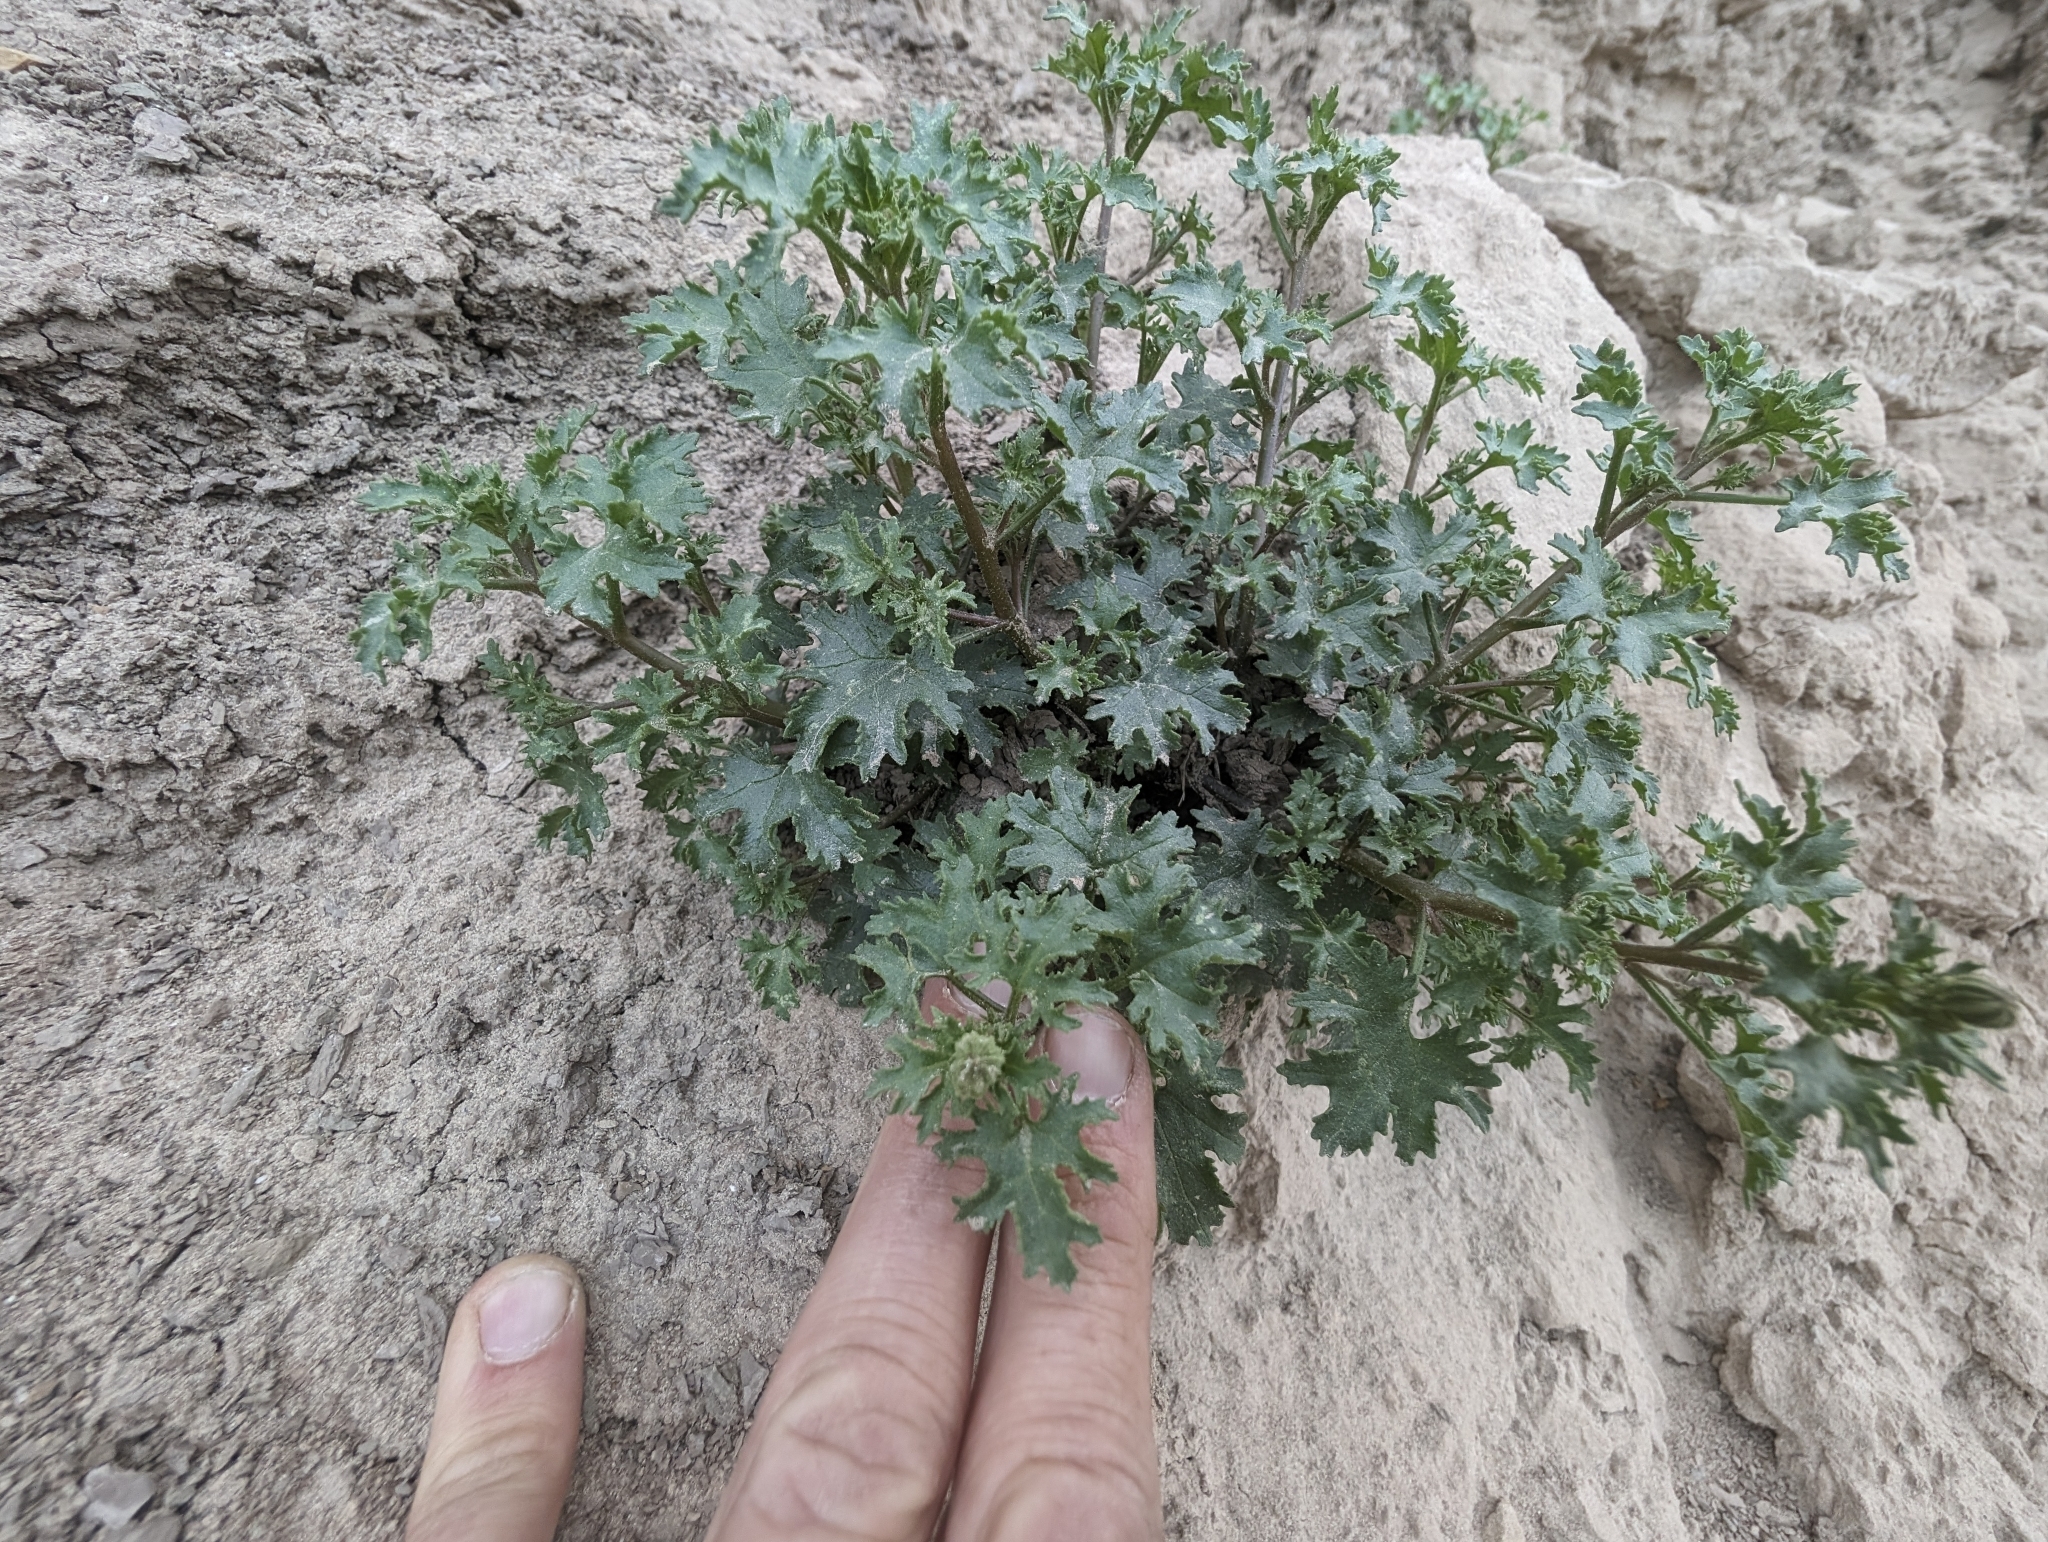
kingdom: Plantae
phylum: Tracheophyta
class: Magnoliopsida
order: Asterales
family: Asteraceae
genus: Laphamia
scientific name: Laphamia emoryi
